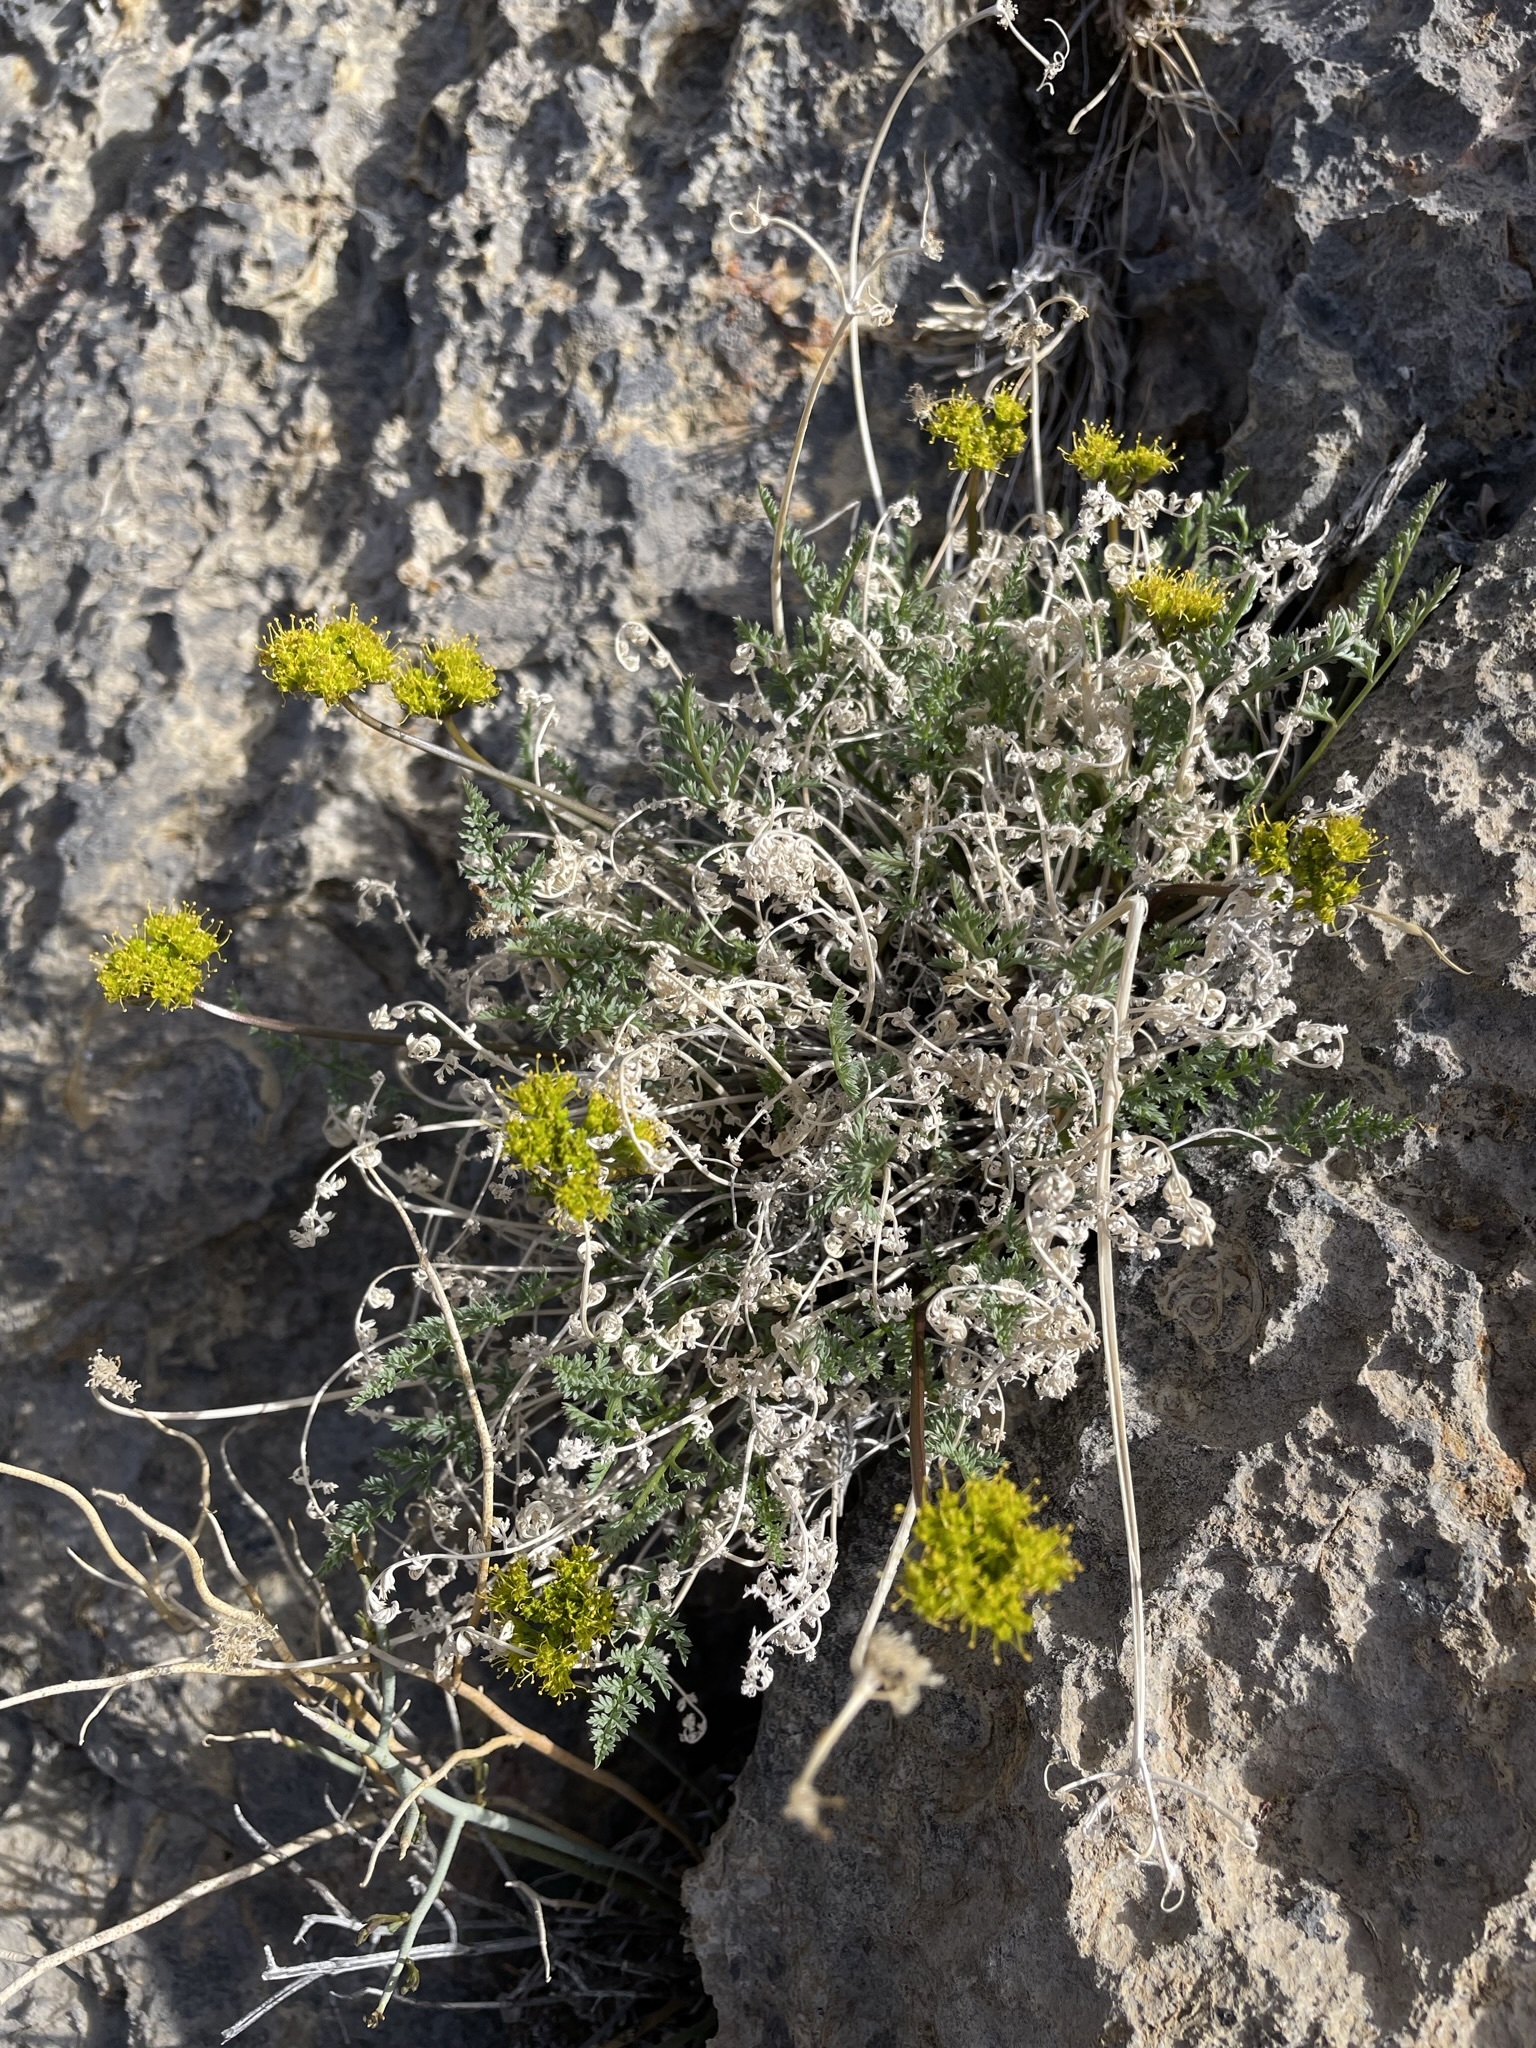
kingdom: Plantae
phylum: Tracheophyta
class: Magnoliopsida
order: Apiales
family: Apiaceae
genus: Lomatium
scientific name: Lomatium parryi
